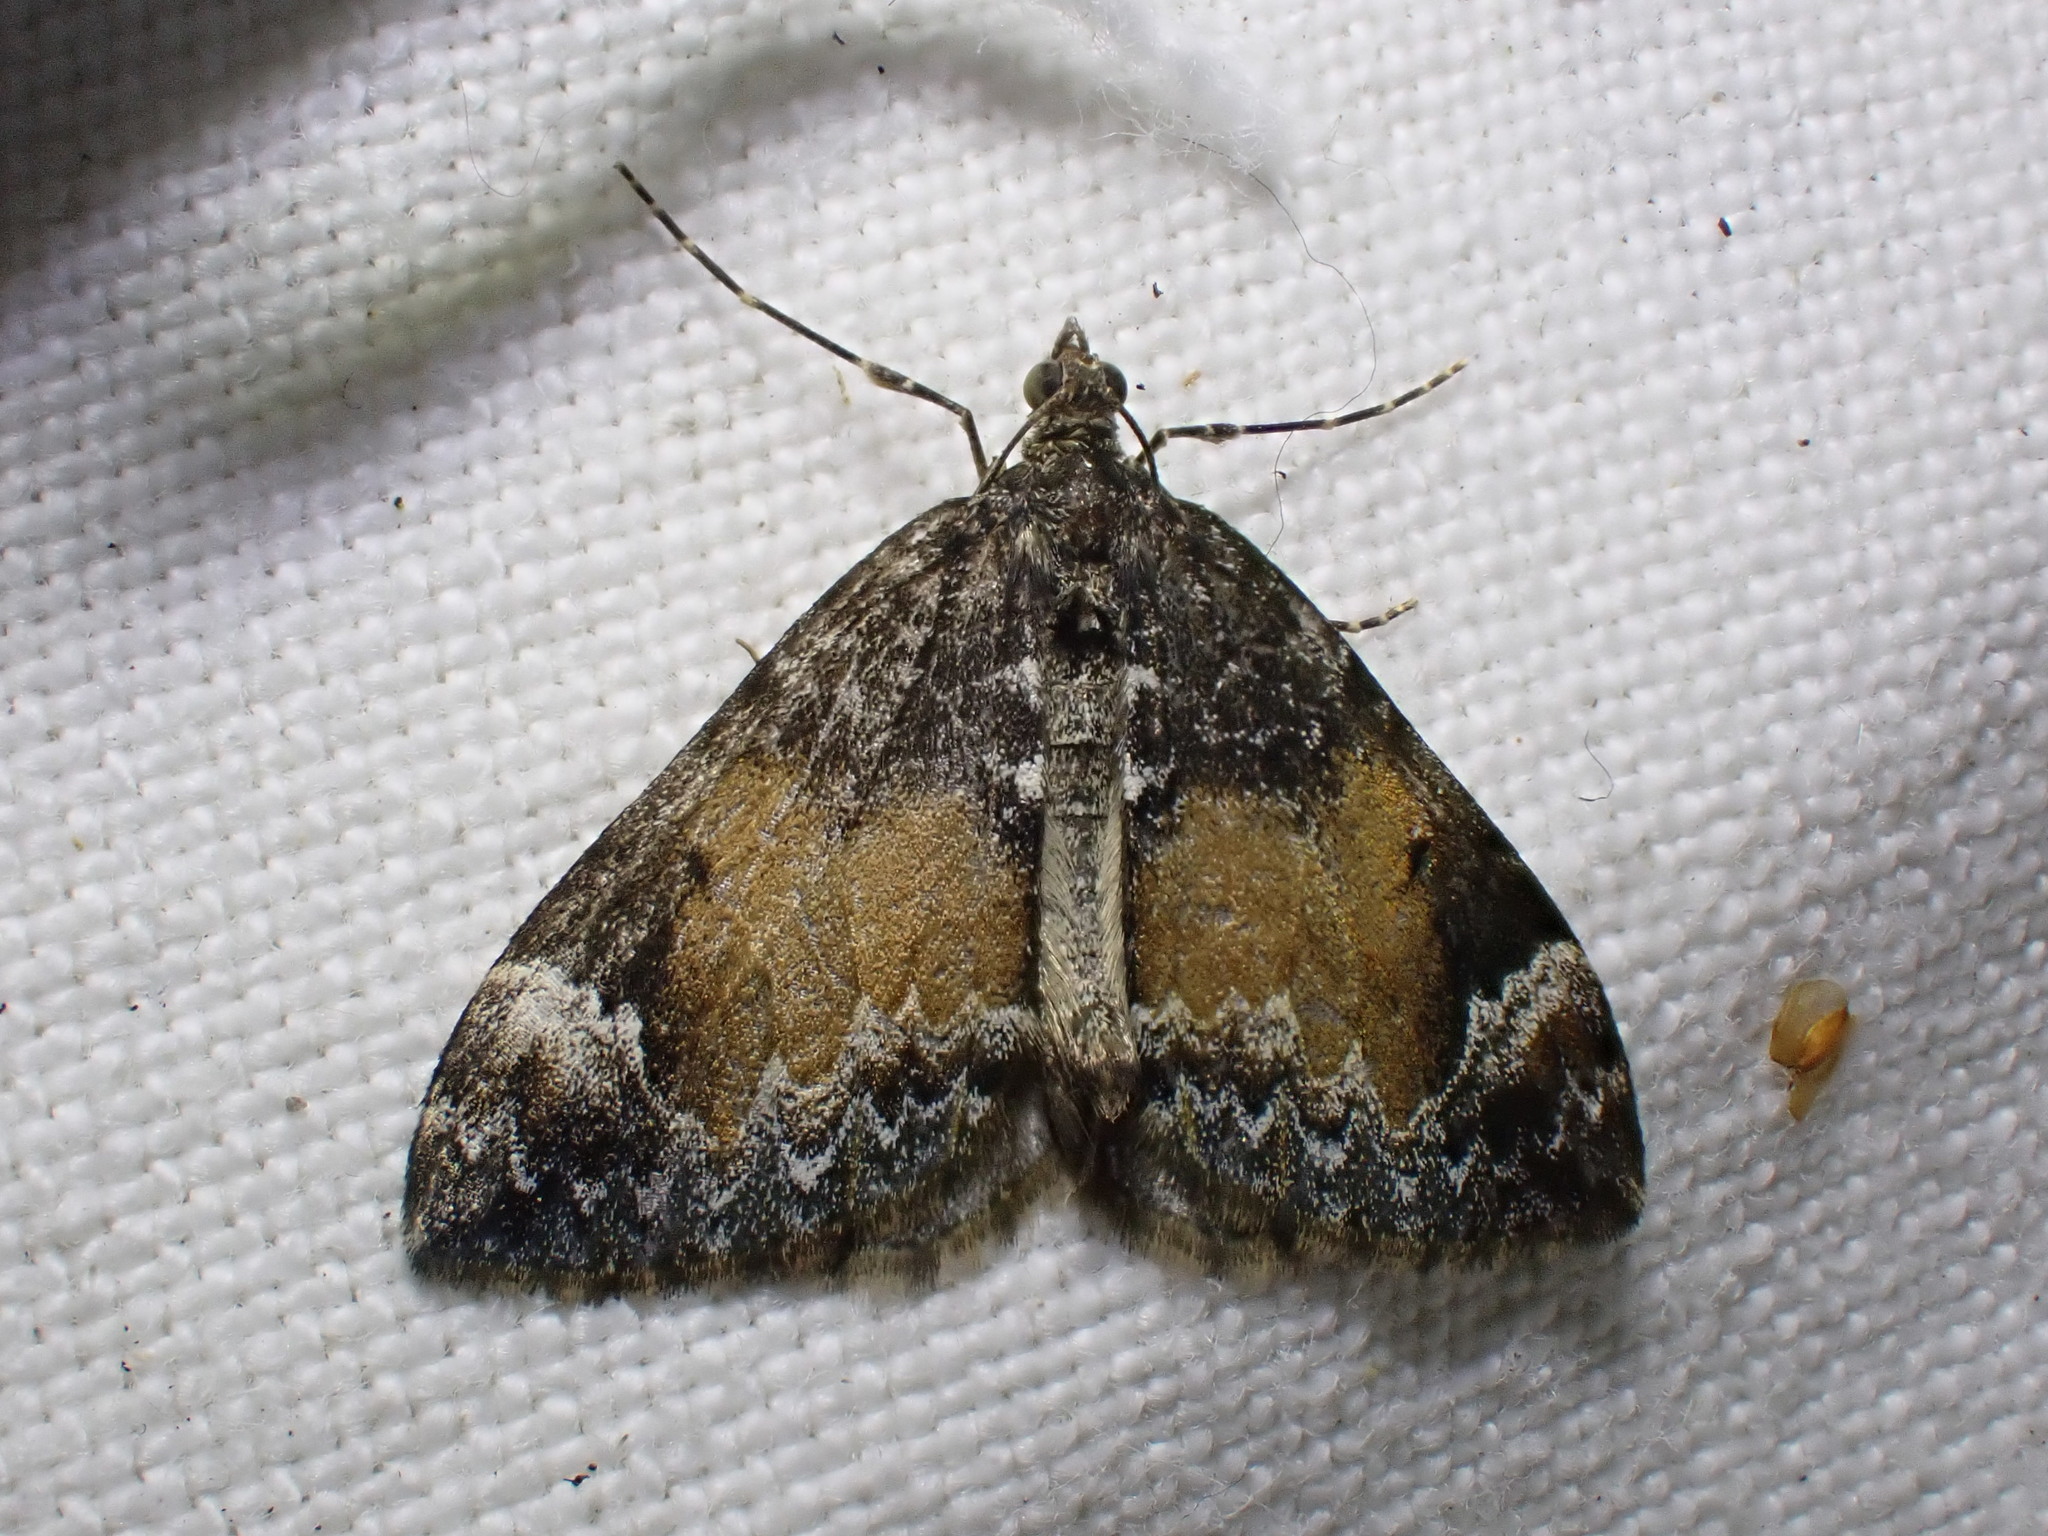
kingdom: Animalia
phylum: Arthropoda
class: Insecta
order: Lepidoptera
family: Geometridae
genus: Dysstroma
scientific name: Dysstroma truncata
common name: Common marbled carpet
